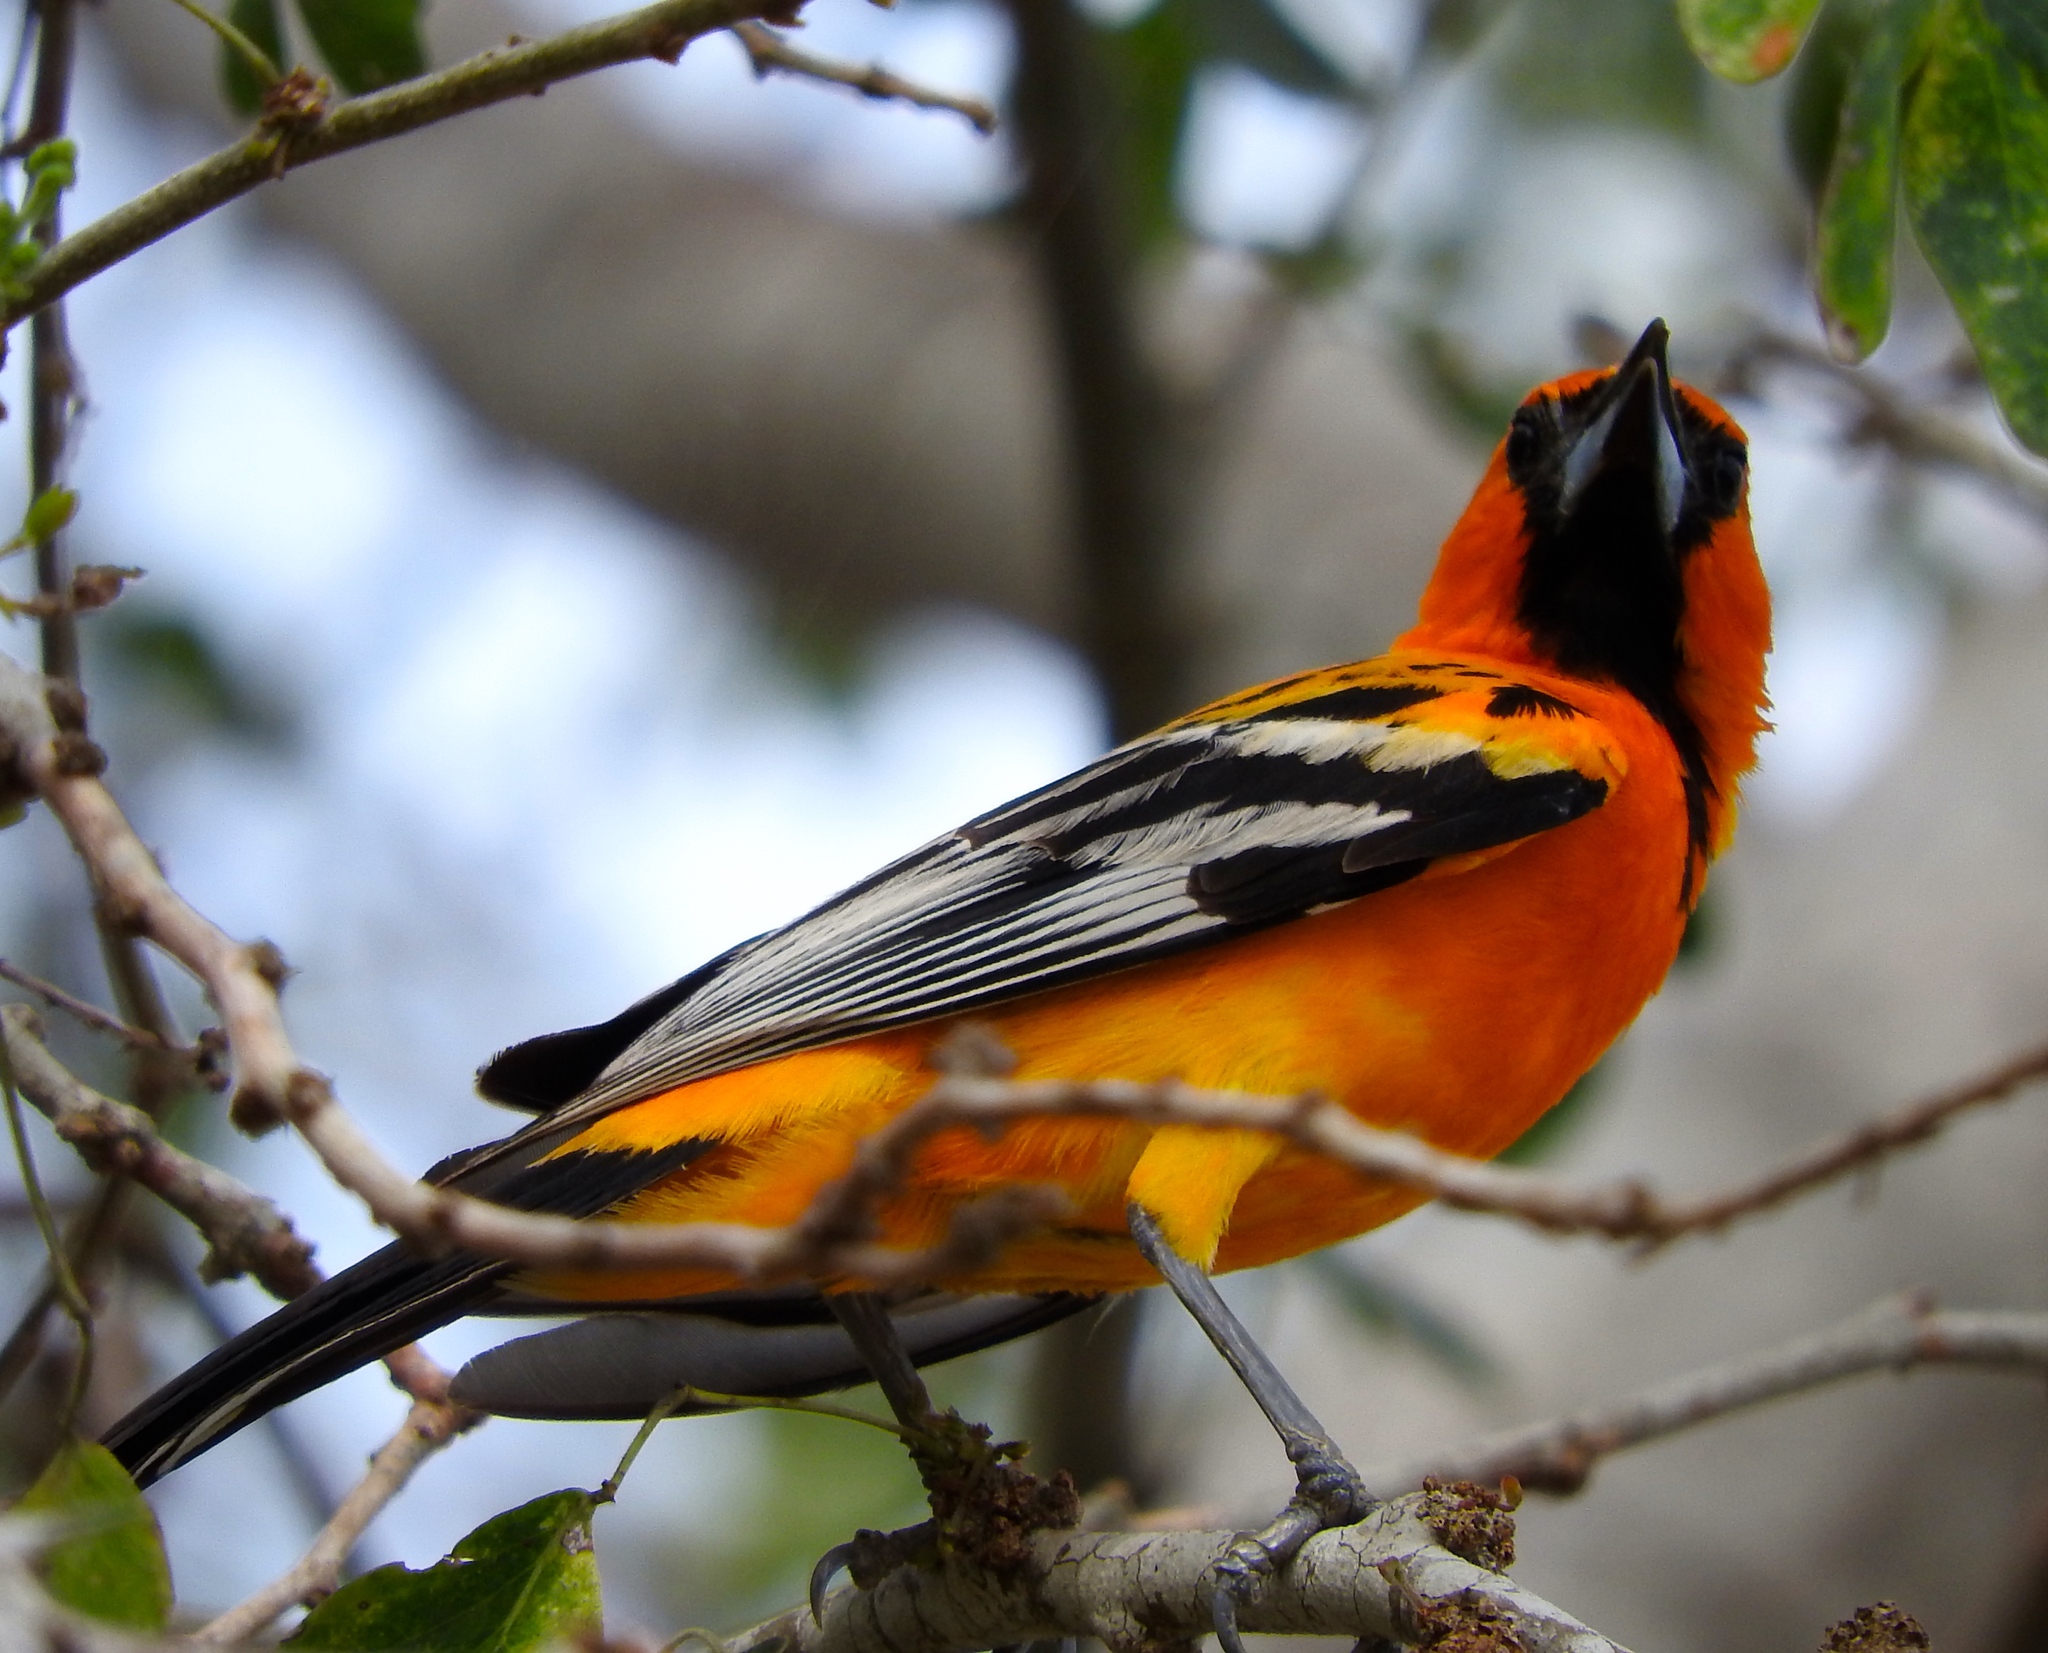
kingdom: Animalia
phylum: Chordata
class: Aves
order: Passeriformes
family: Icteridae
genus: Icterus
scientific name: Icterus pustulatus
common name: Streak-backed oriole
